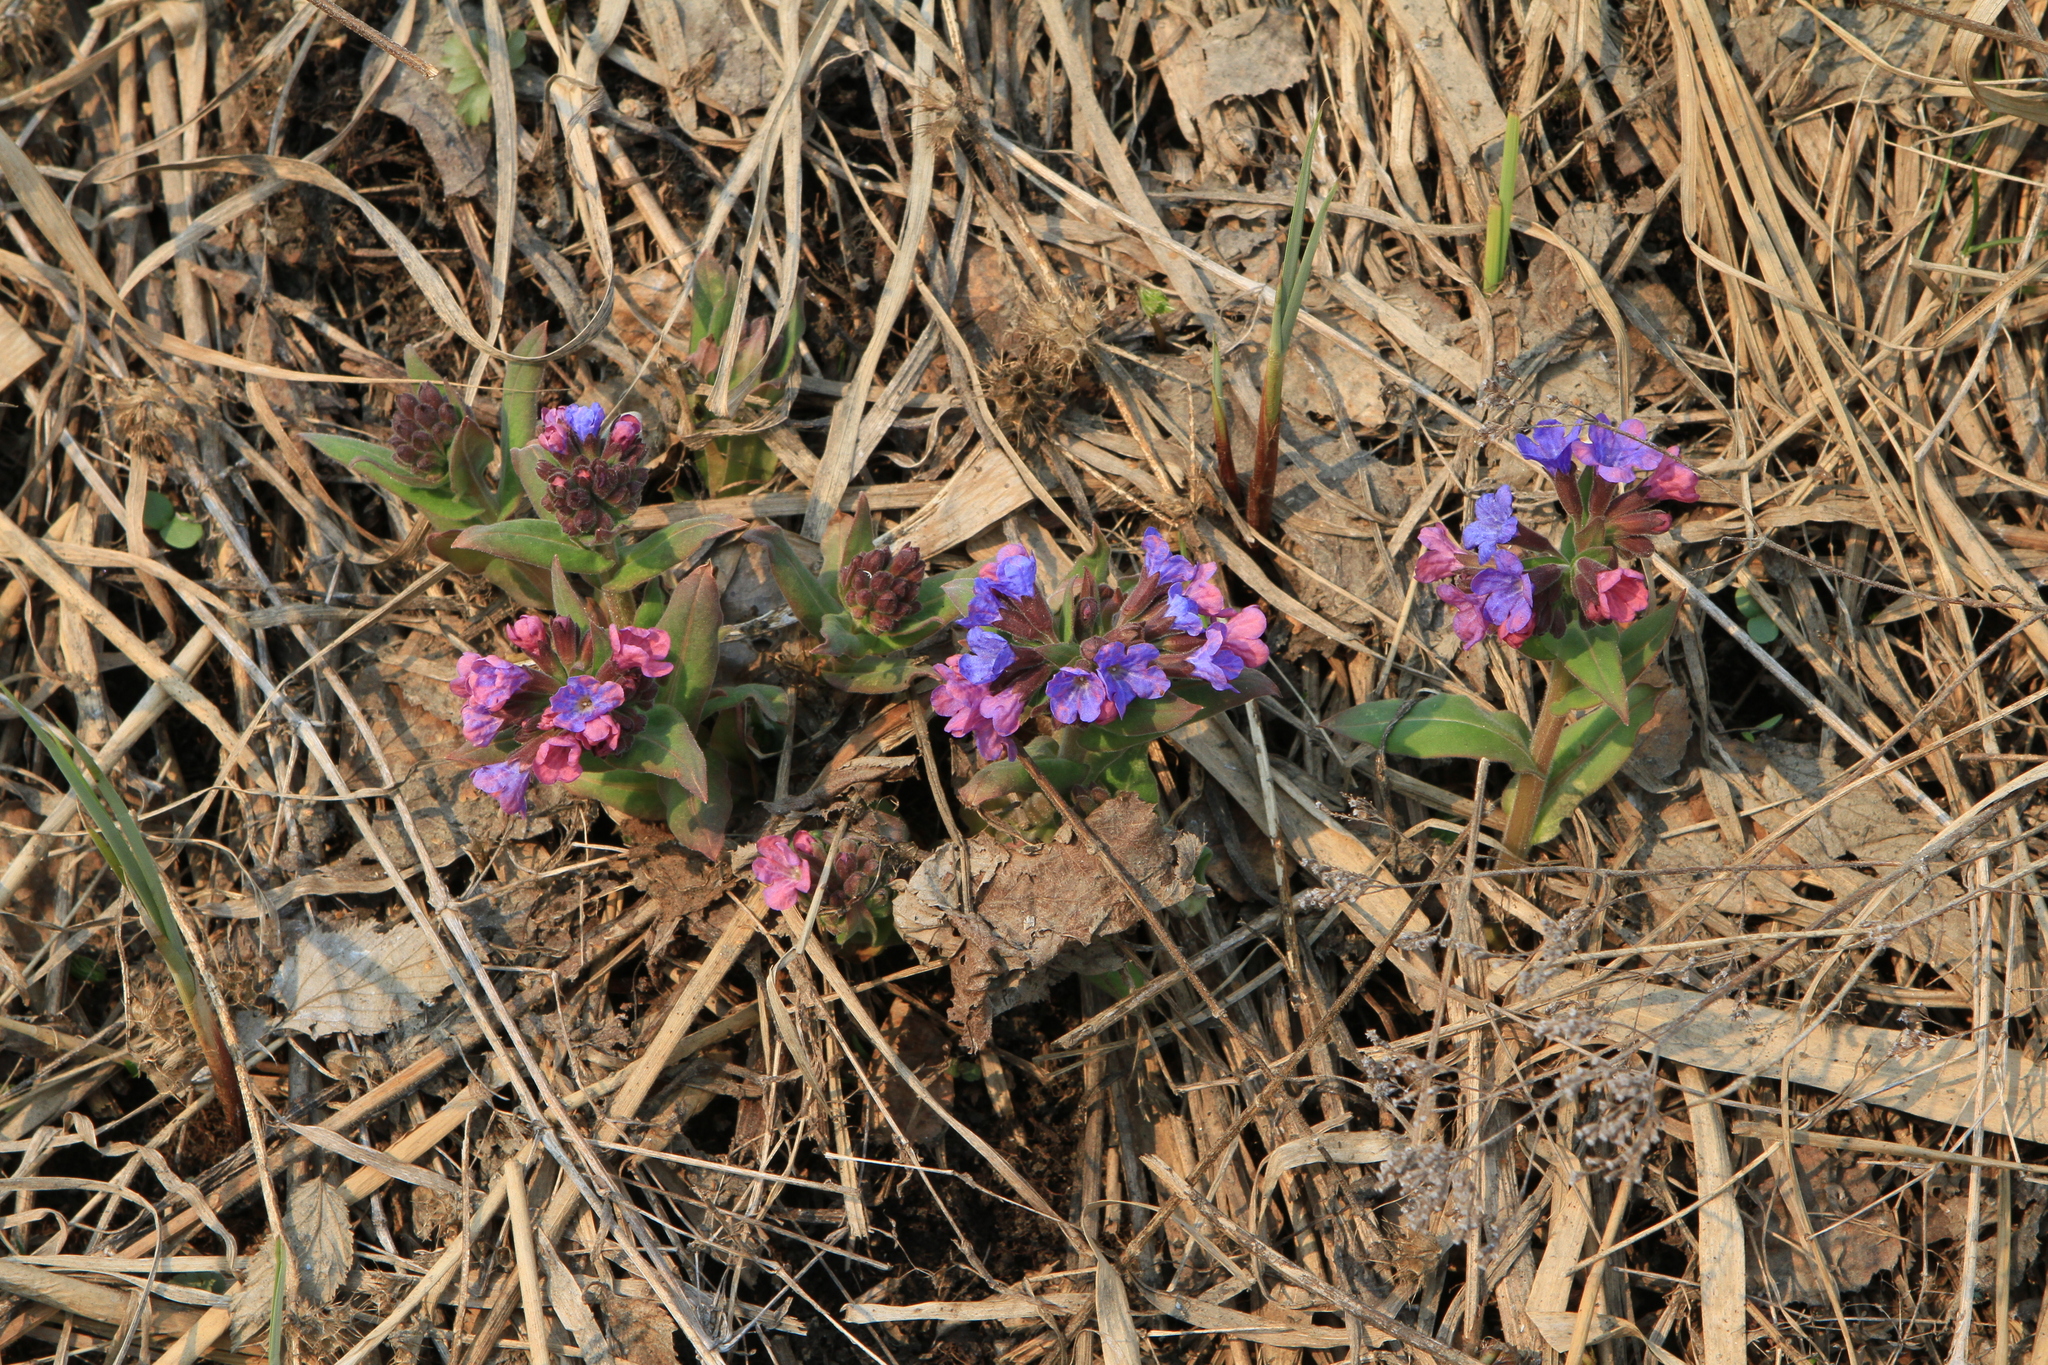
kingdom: Plantae
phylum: Tracheophyta
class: Magnoliopsida
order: Boraginales
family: Boraginaceae
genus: Pulmonaria
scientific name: Pulmonaria mollis
